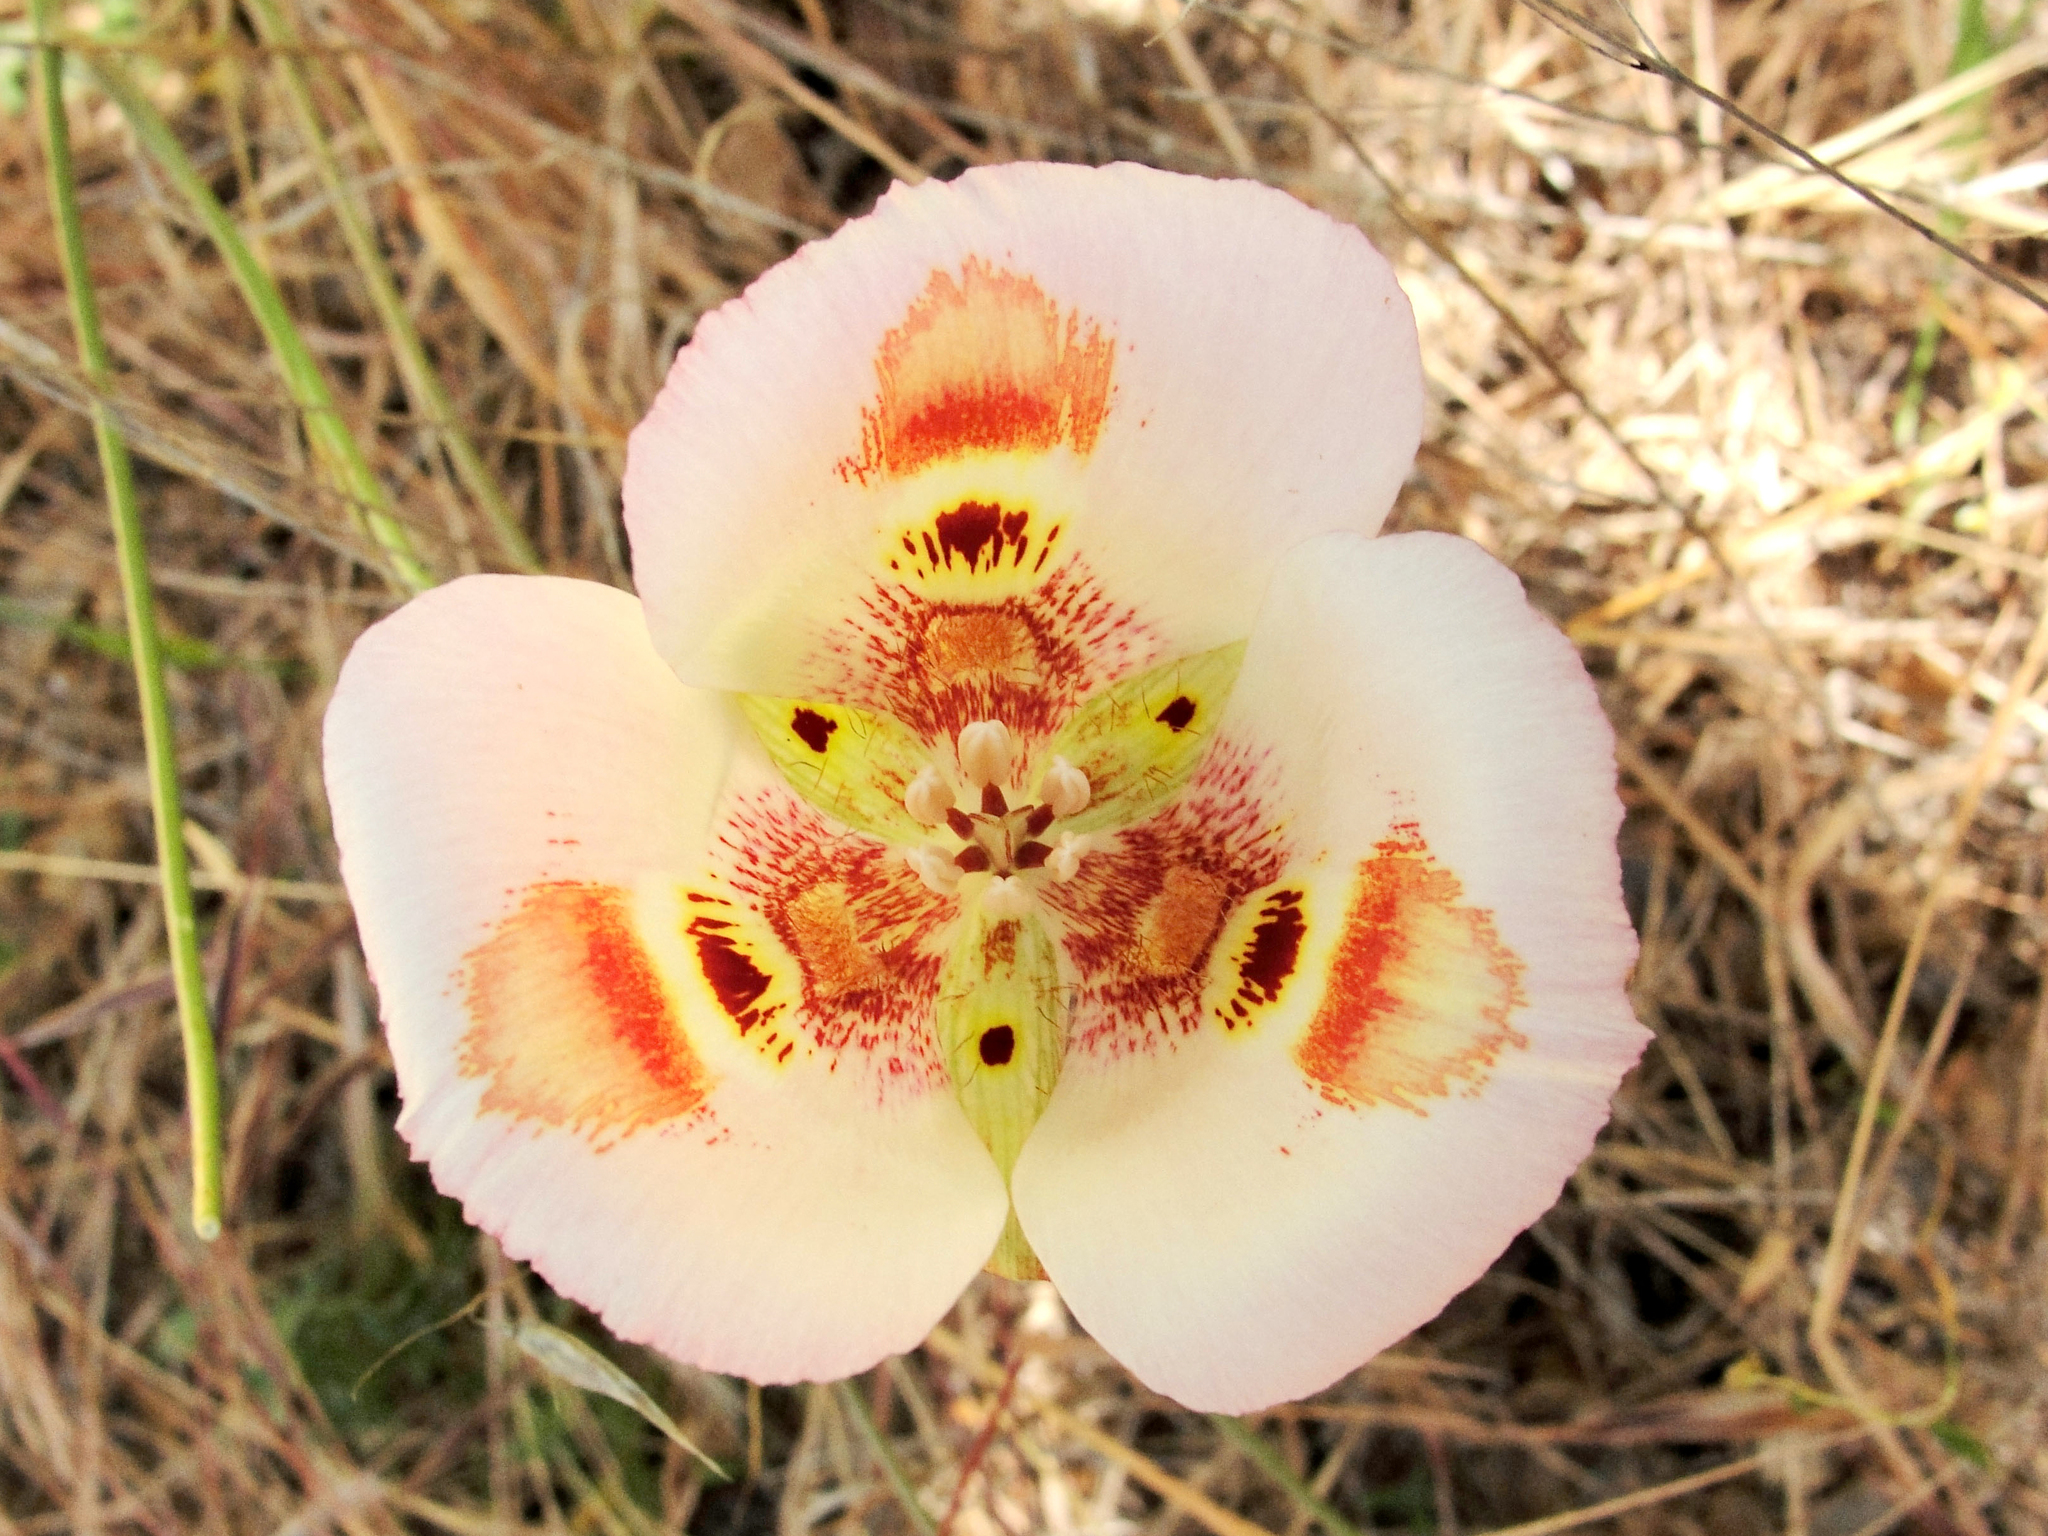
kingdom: Plantae
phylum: Tracheophyta
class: Liliopsida
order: Liliales
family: Liliaceae
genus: Calochortus
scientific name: Calochortus venustus
